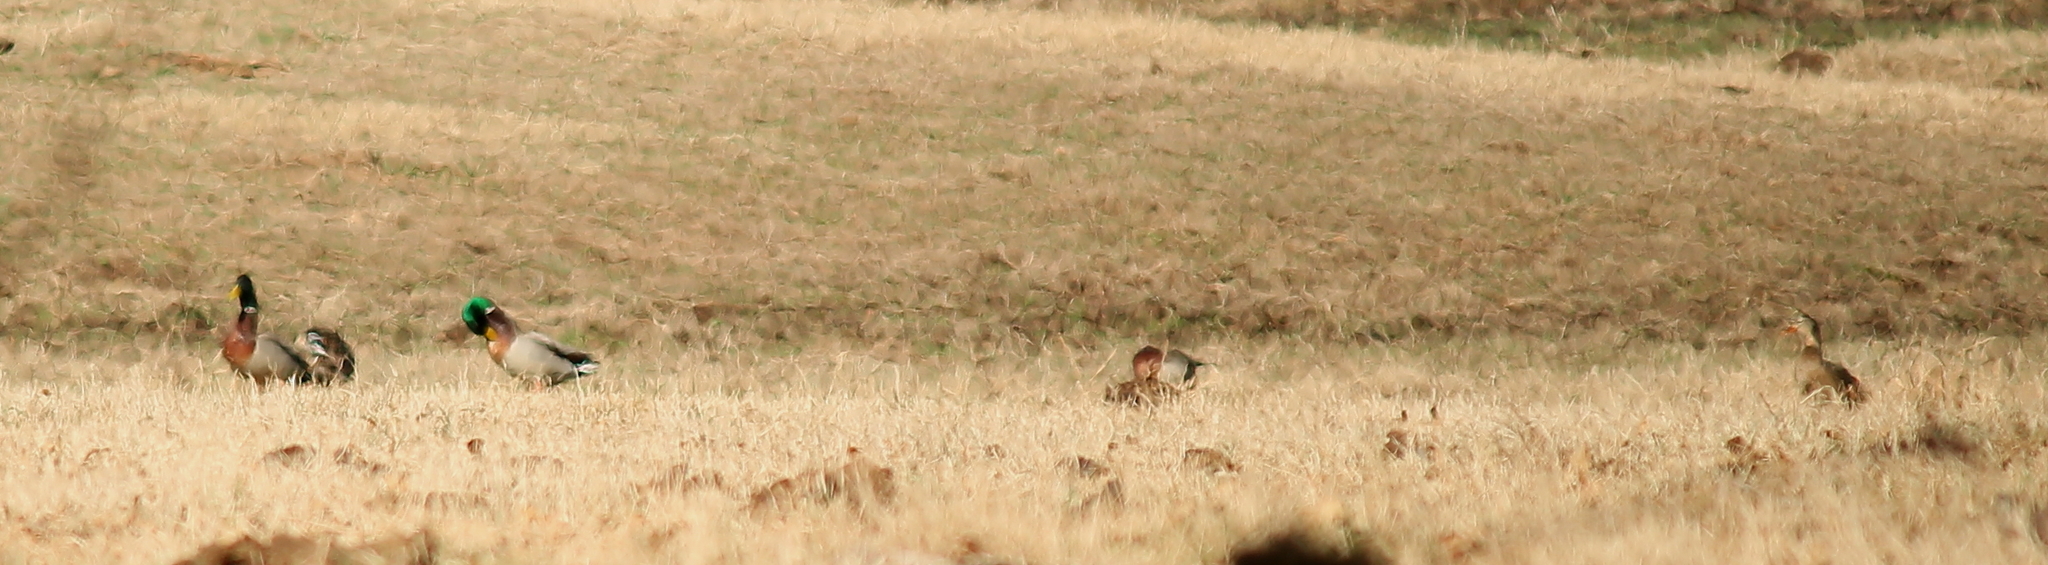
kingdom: Animalia
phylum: Chordata
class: Aves
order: Anseriformes
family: Anatidae
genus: Anas
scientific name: Anas platyrhynchos
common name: Mallard
